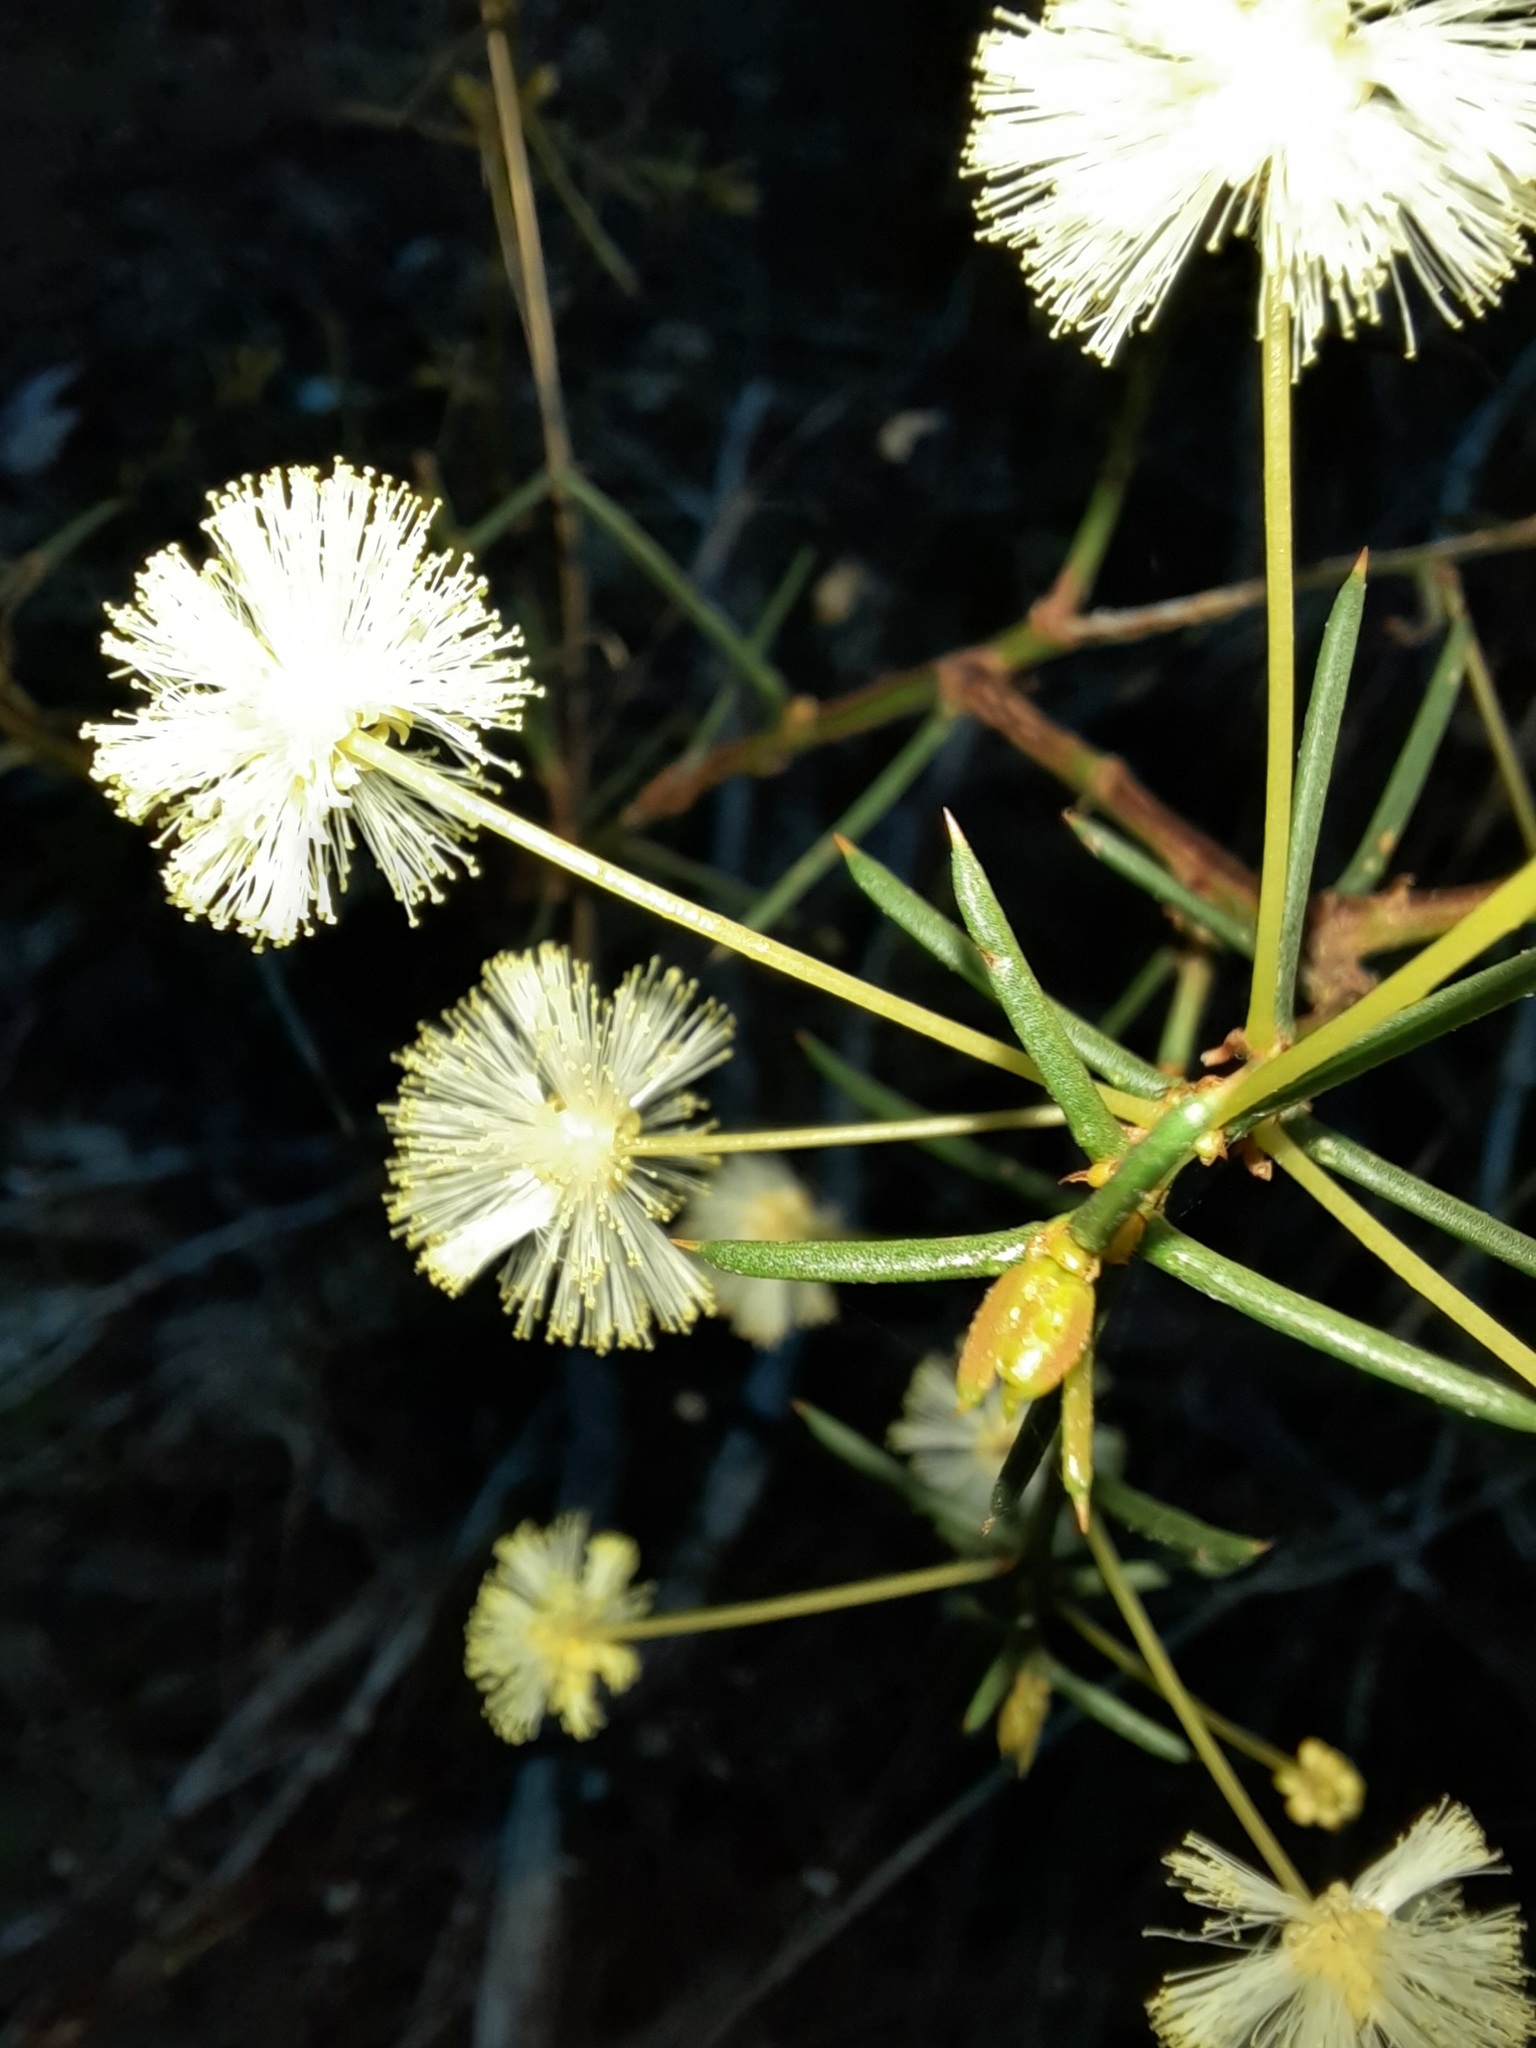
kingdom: Plantae
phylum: Tracheophyta
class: Magnoliopsida
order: Fabales
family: Fabaceae
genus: Acacia
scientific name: Acacia genistifolia
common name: Early wattle
